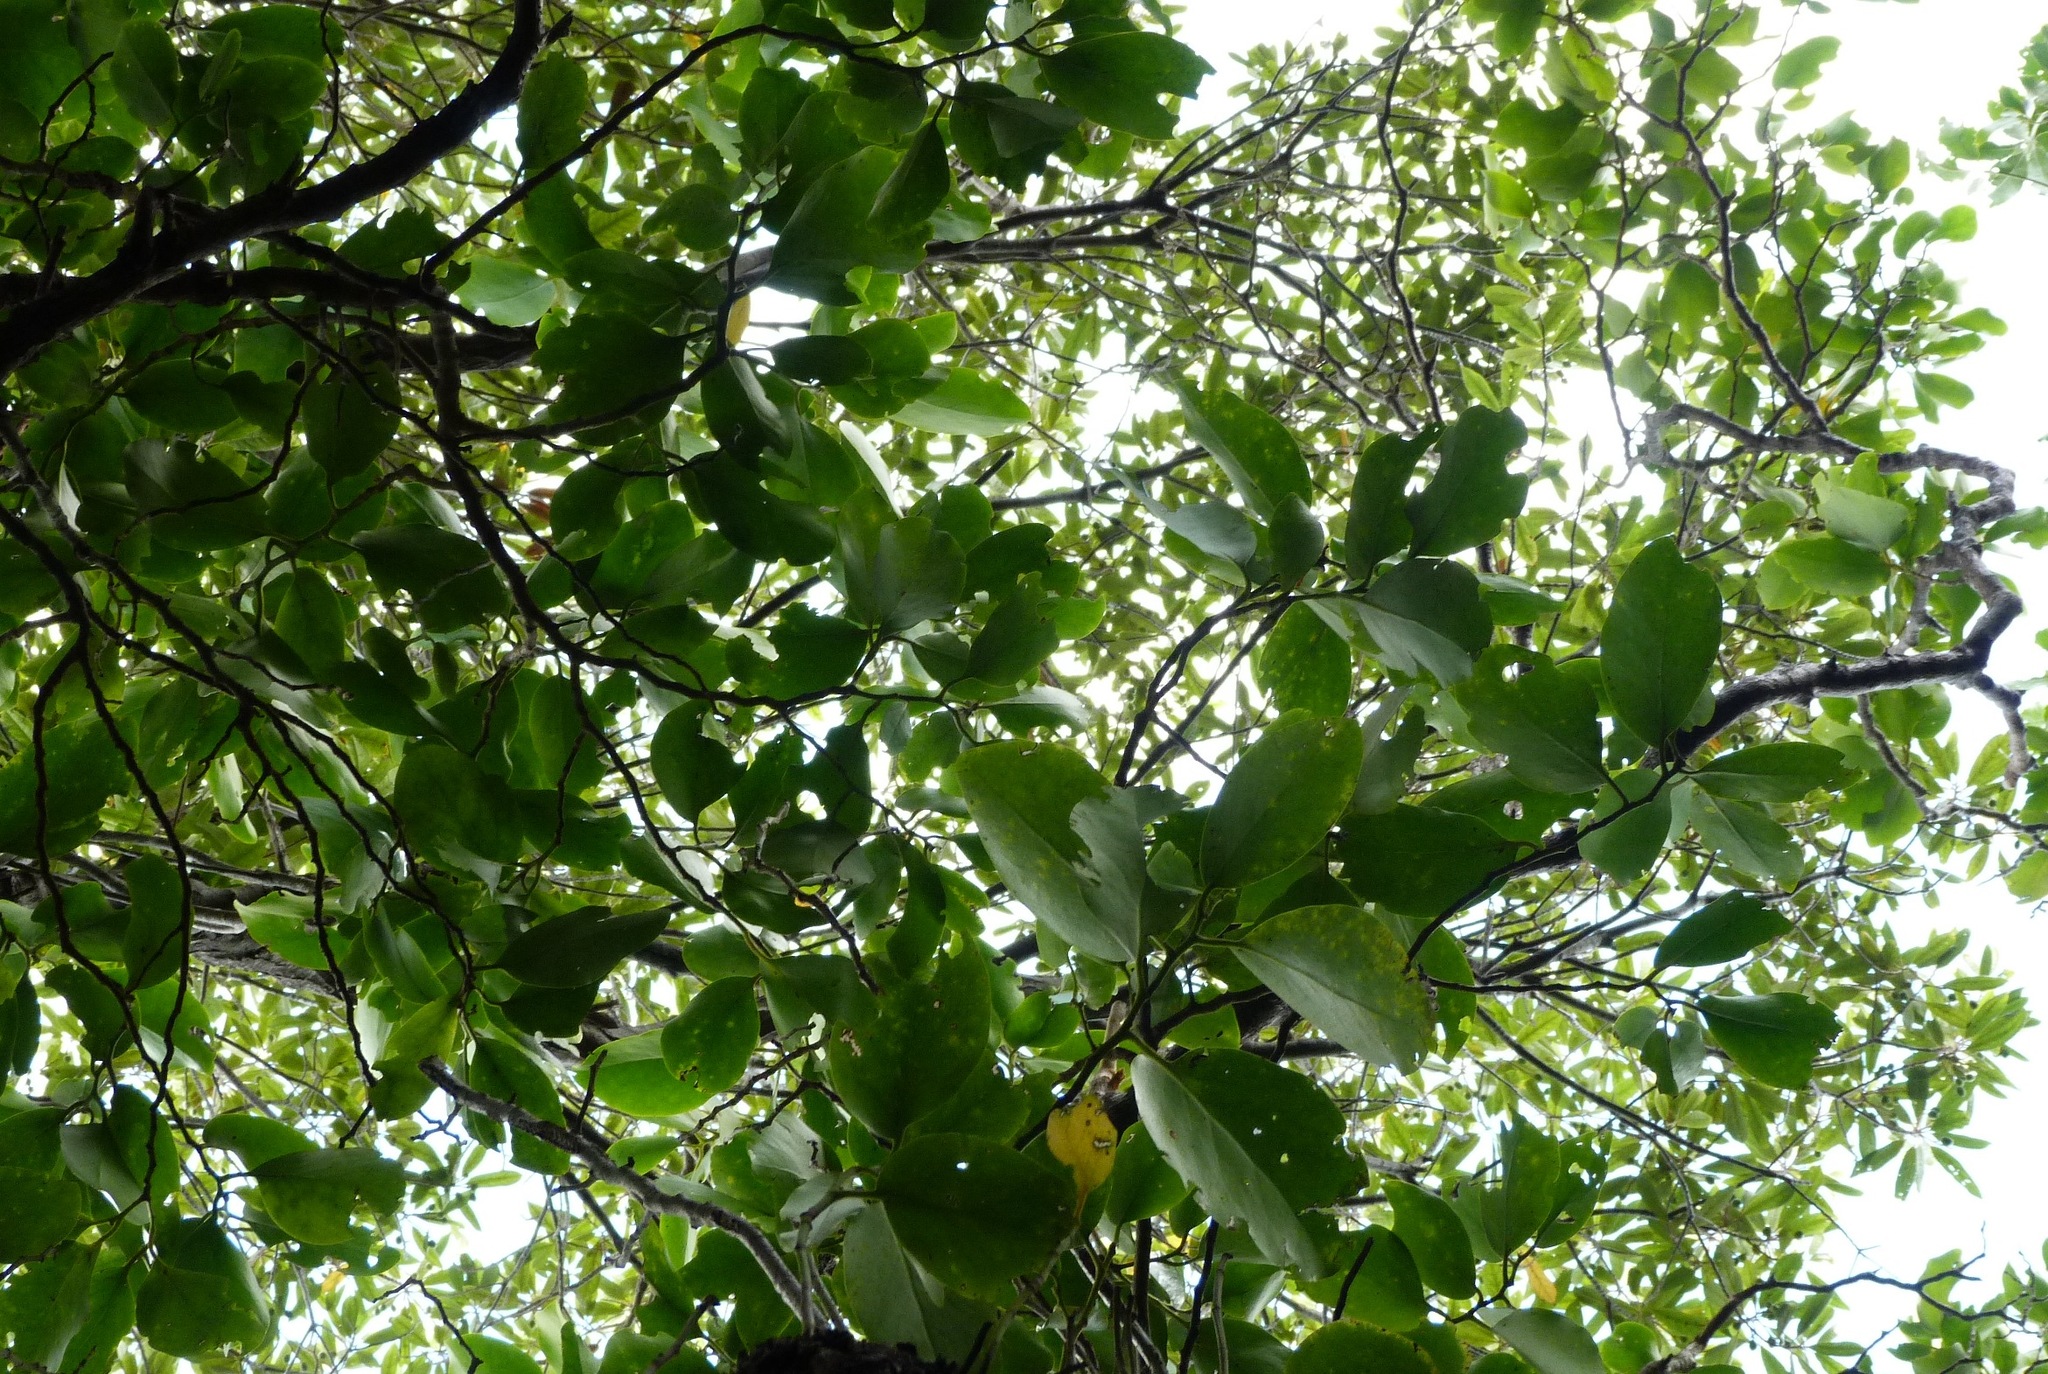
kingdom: Plantae
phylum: Tracheophyta
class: Magnoliopsida
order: Apiales
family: Griseliniaceae
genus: Griselinia
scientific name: Griselinia lucida
